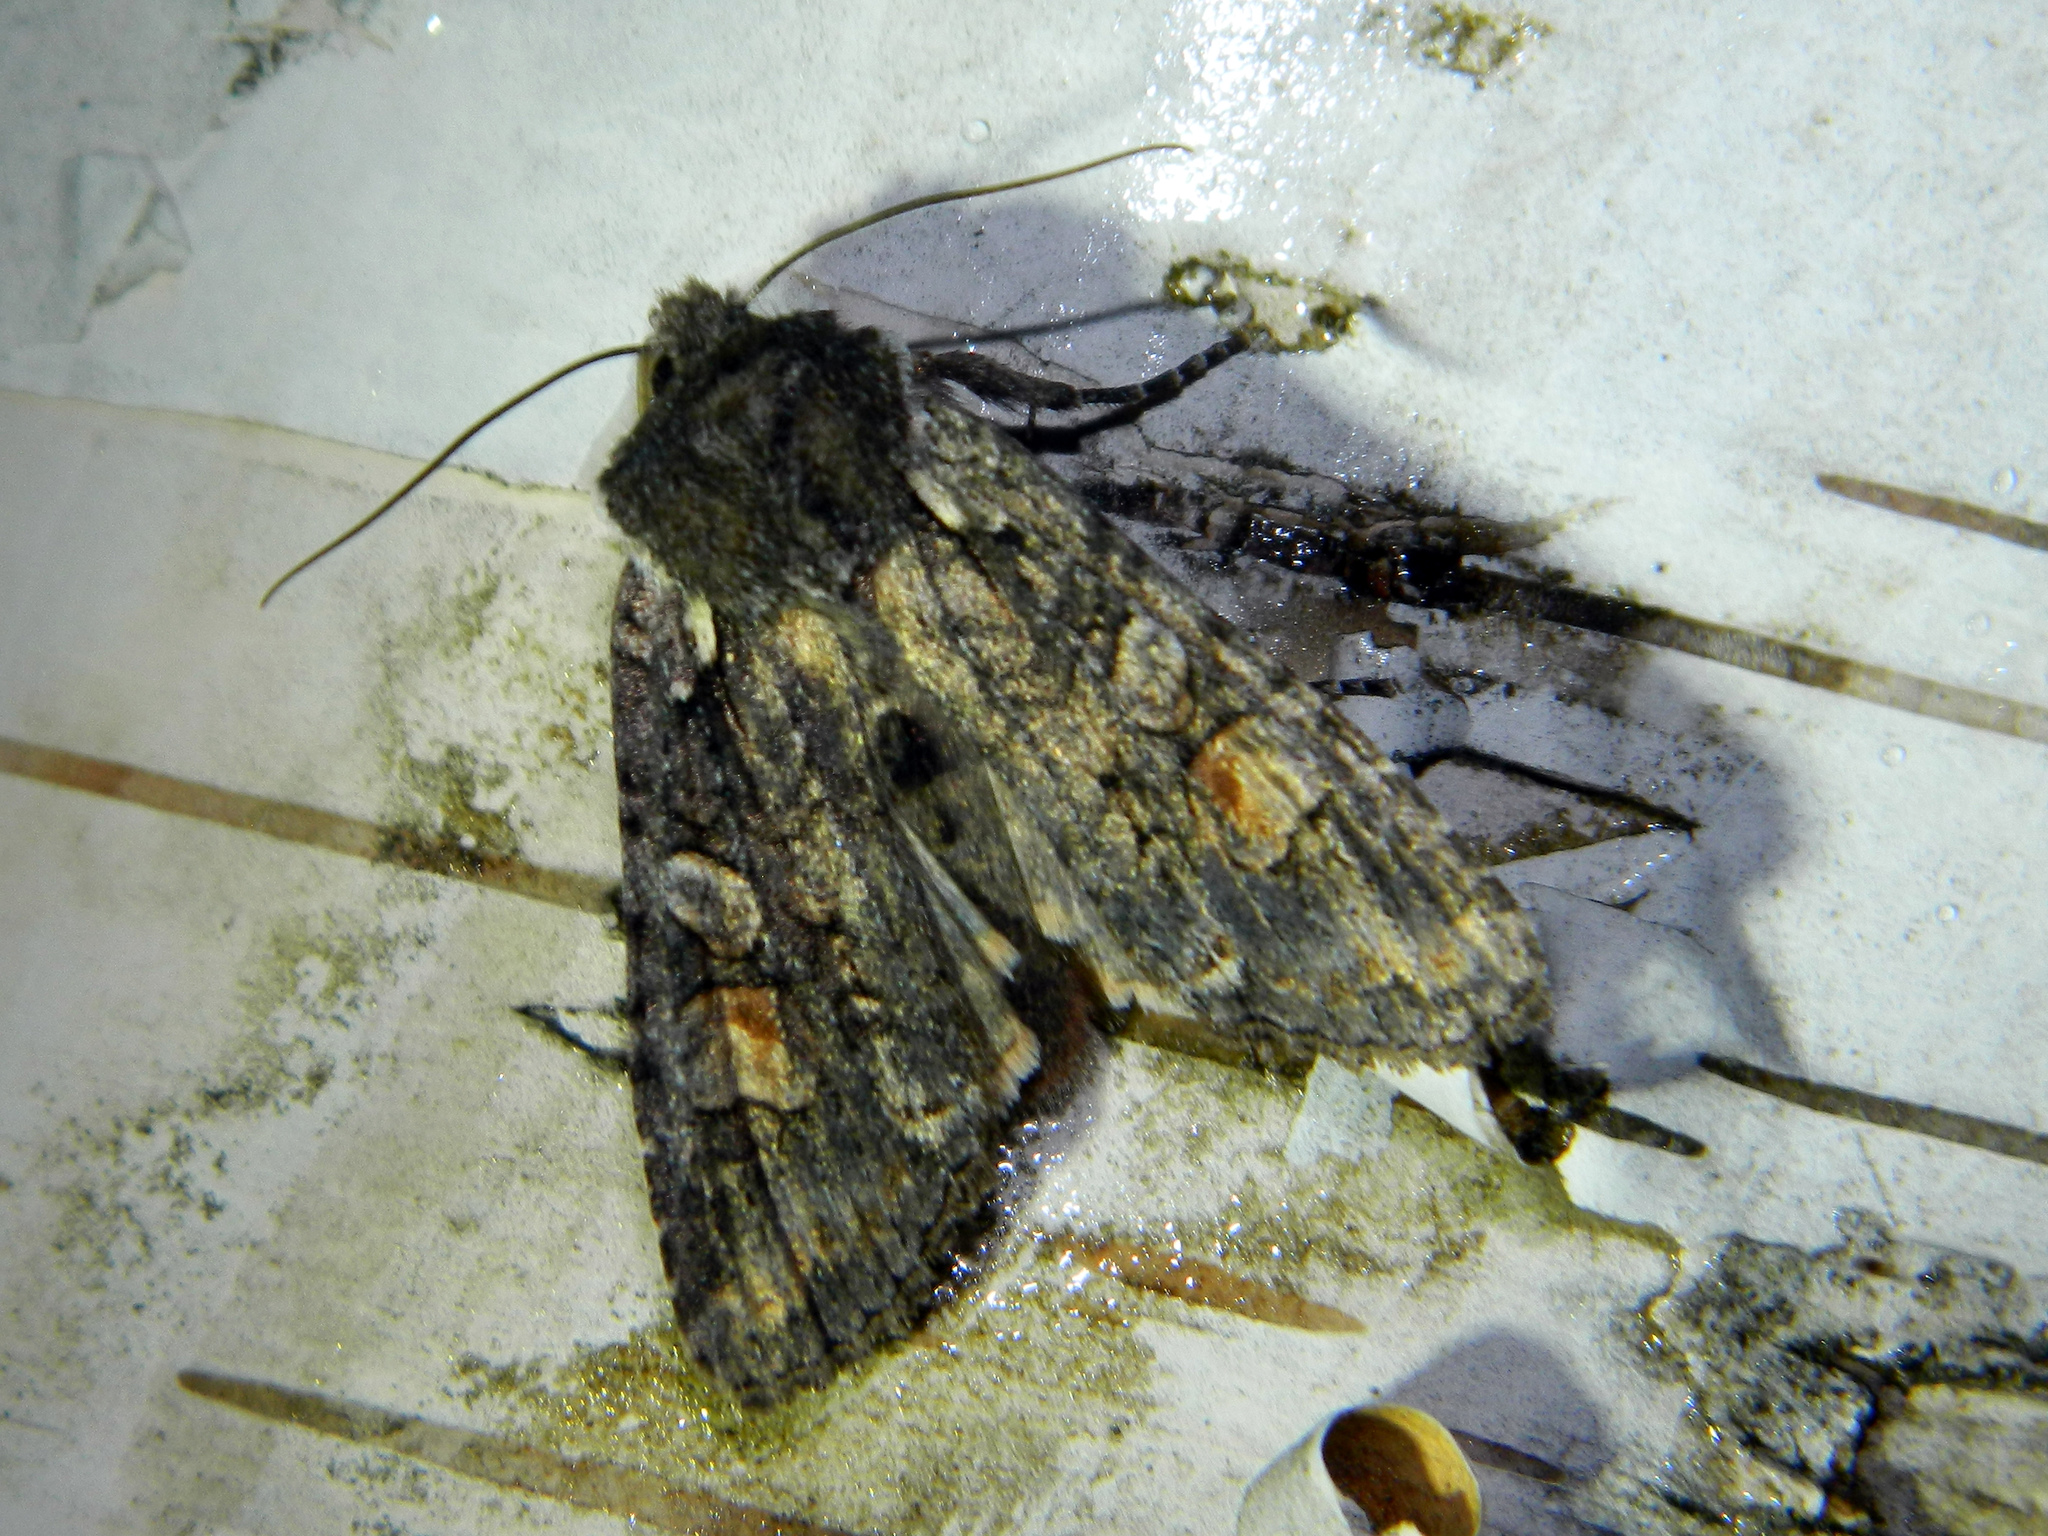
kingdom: Animalia
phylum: Arthropoda
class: Insecta
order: Lepidoptera
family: Noctuidae
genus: Lithophane
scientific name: Lithophane pexata
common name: Plush-naped pinion moth
